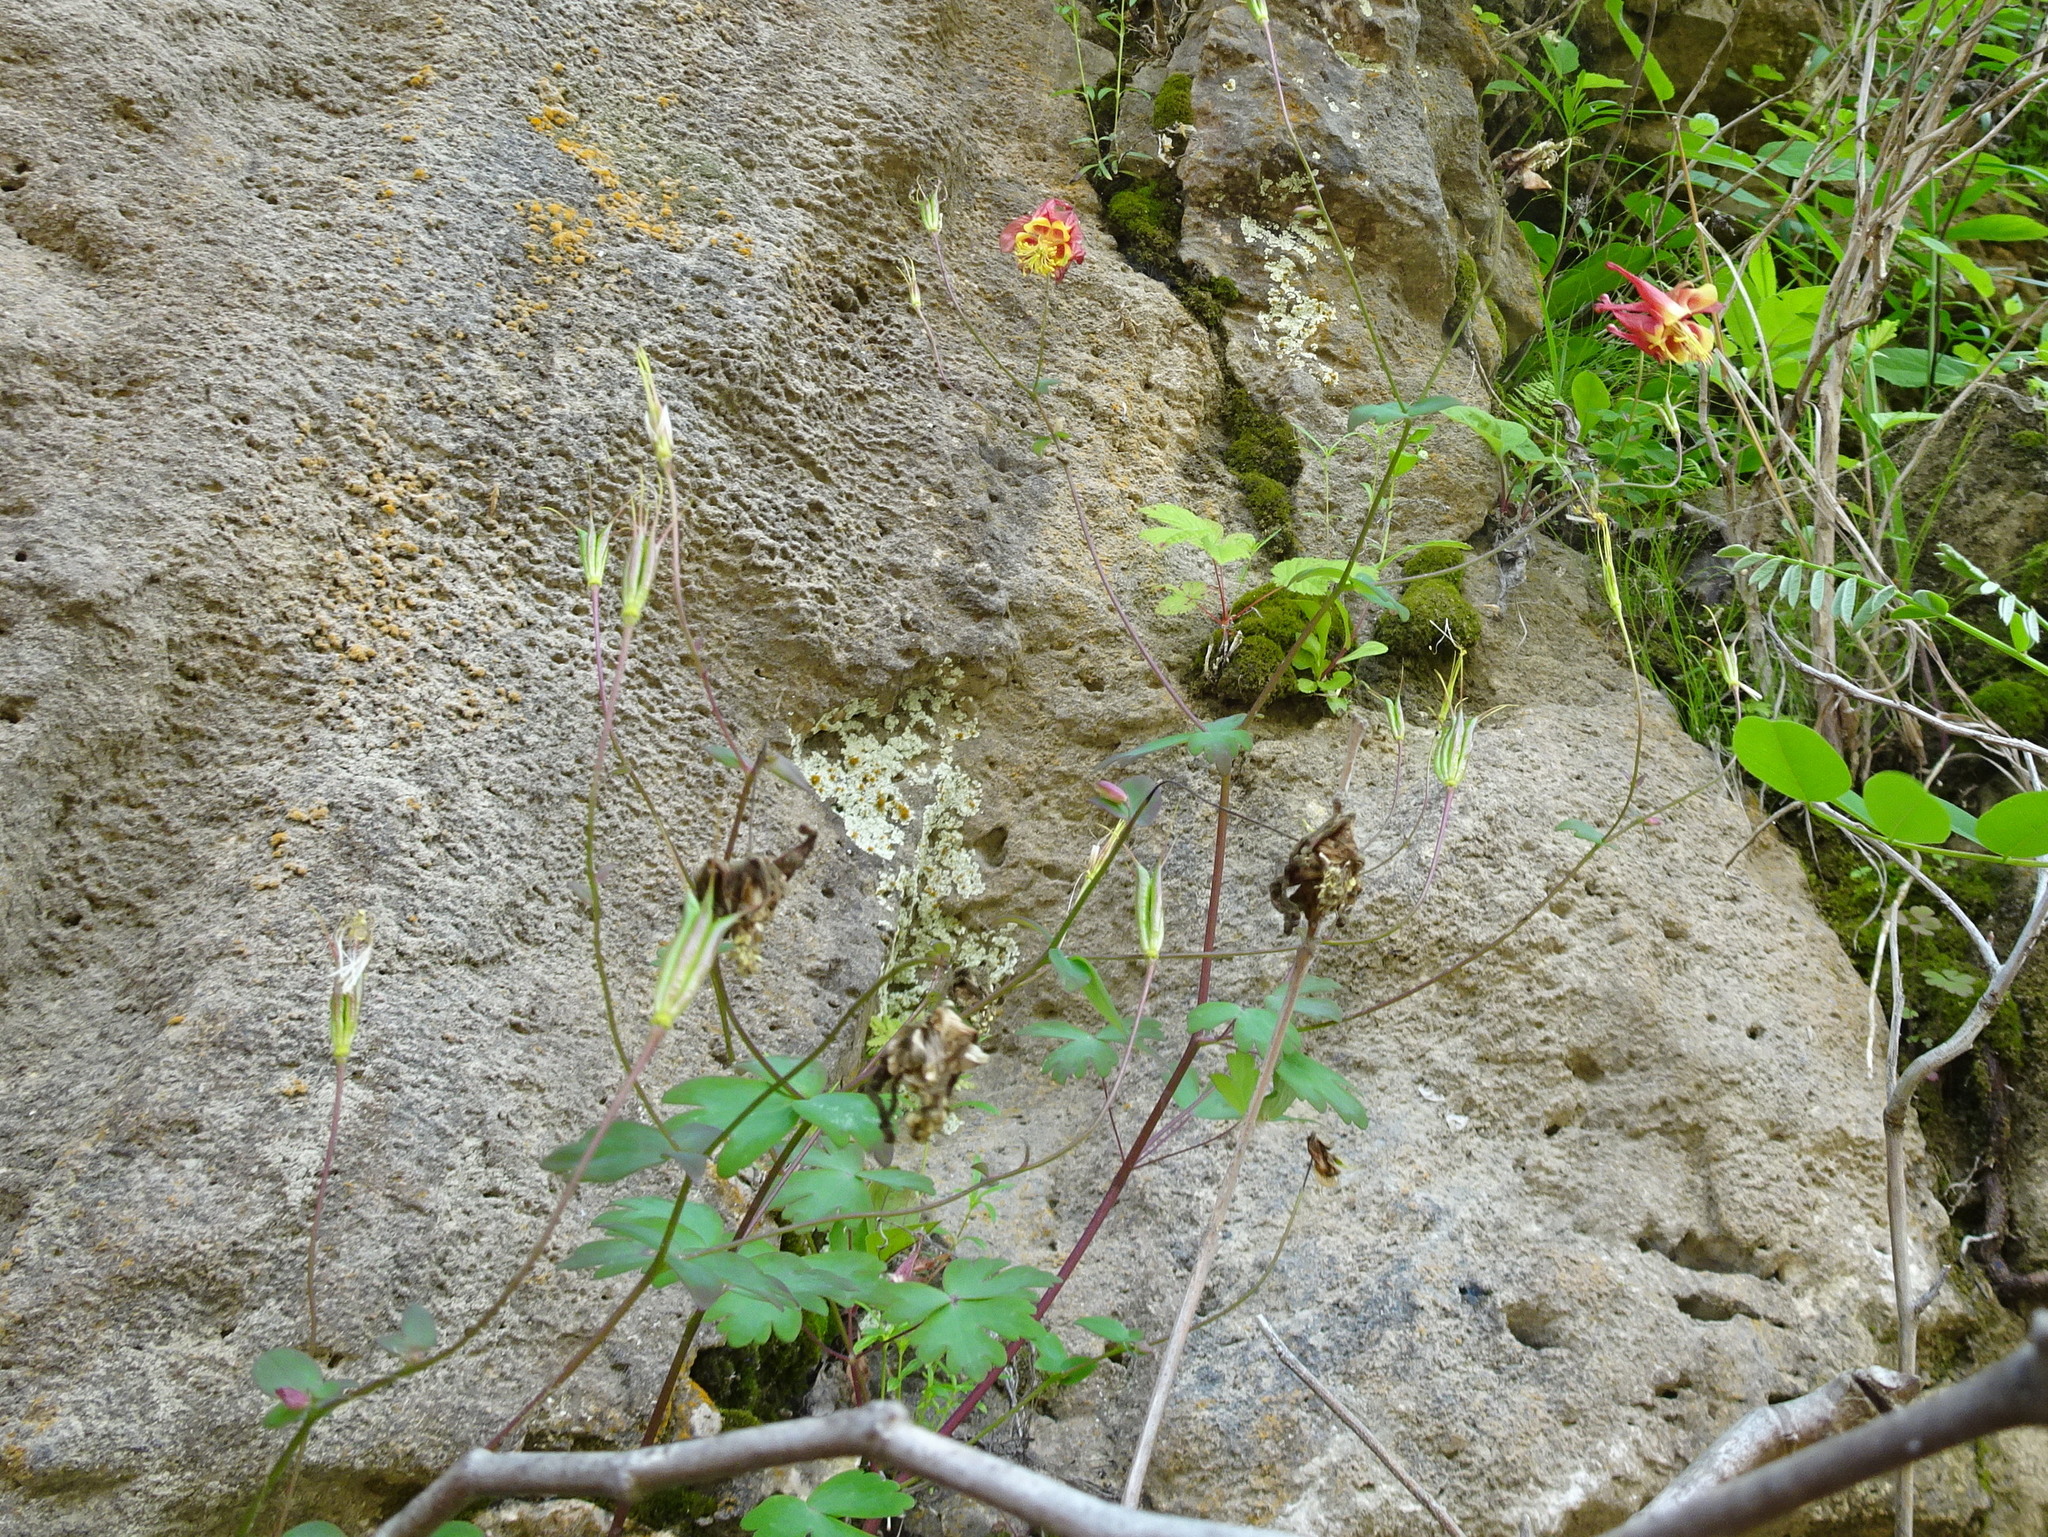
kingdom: Plantae
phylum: Tracheophyta
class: Magnoliopsida
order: Ranunculales
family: Ranunculaceae
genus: Aquilegia
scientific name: Aquilegia canadensis
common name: American columbine
